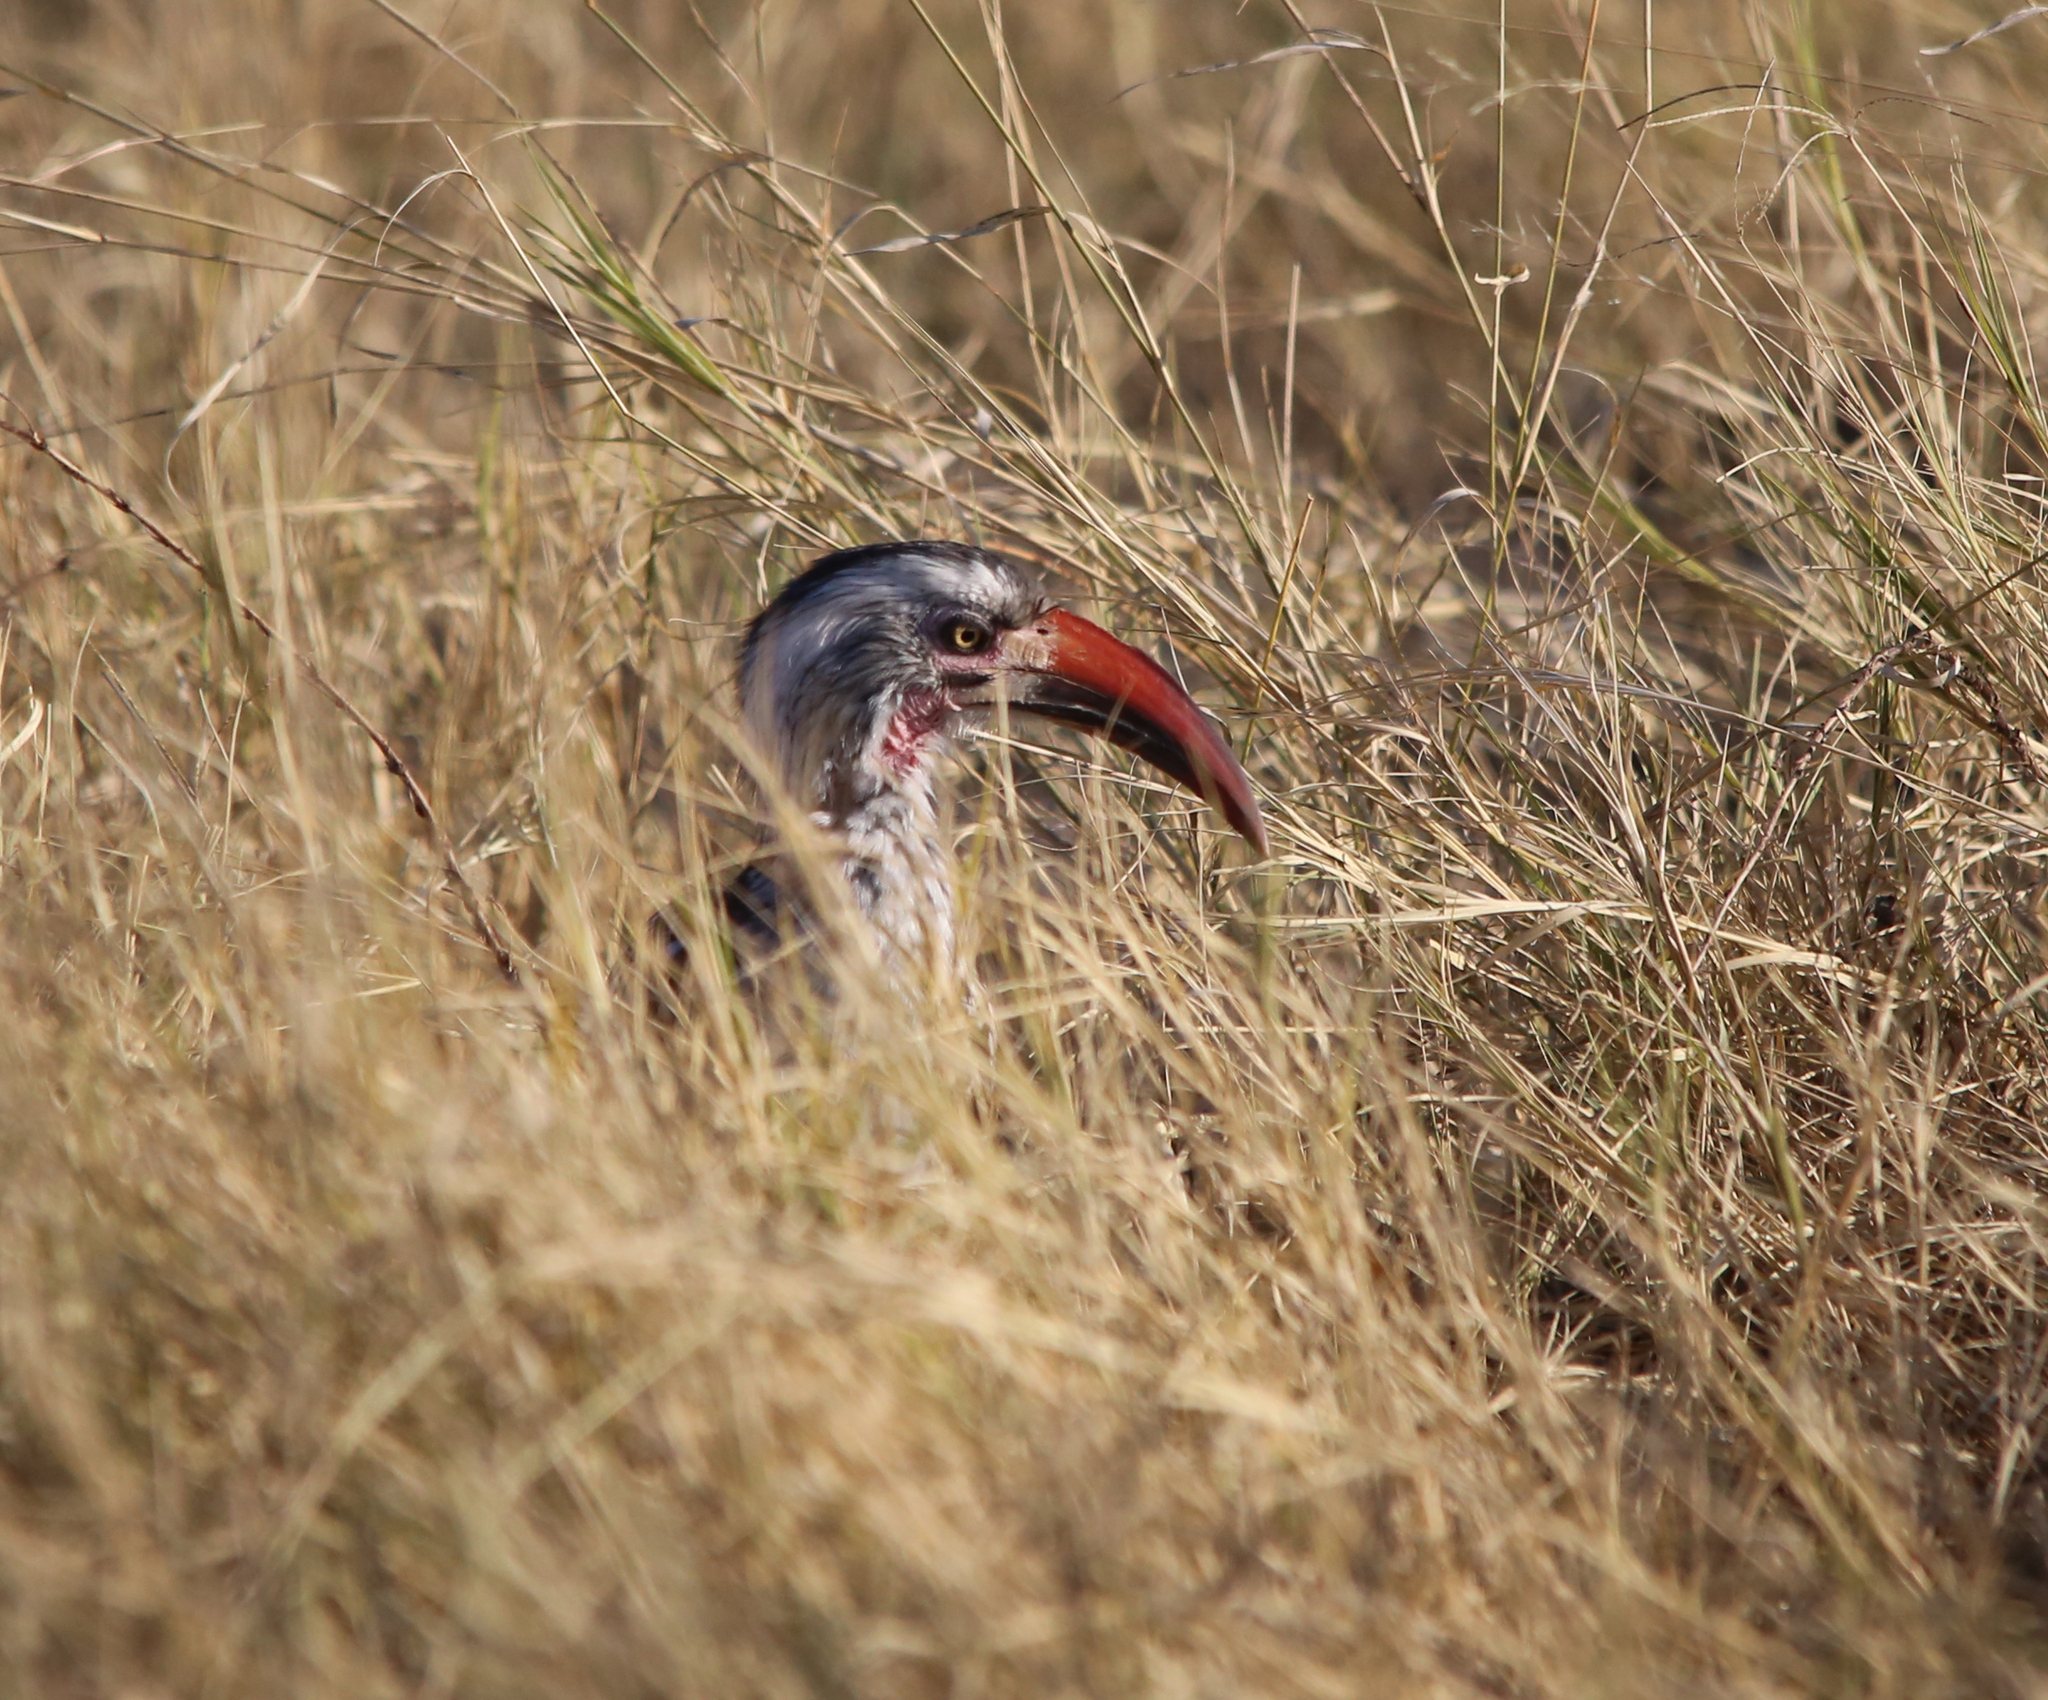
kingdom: Animalia
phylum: Chordata
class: Aves
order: Bucerotiformes
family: Bucerotidae
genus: Tockus
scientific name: Tockus rufirostris
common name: Southern red-billed hornbill
